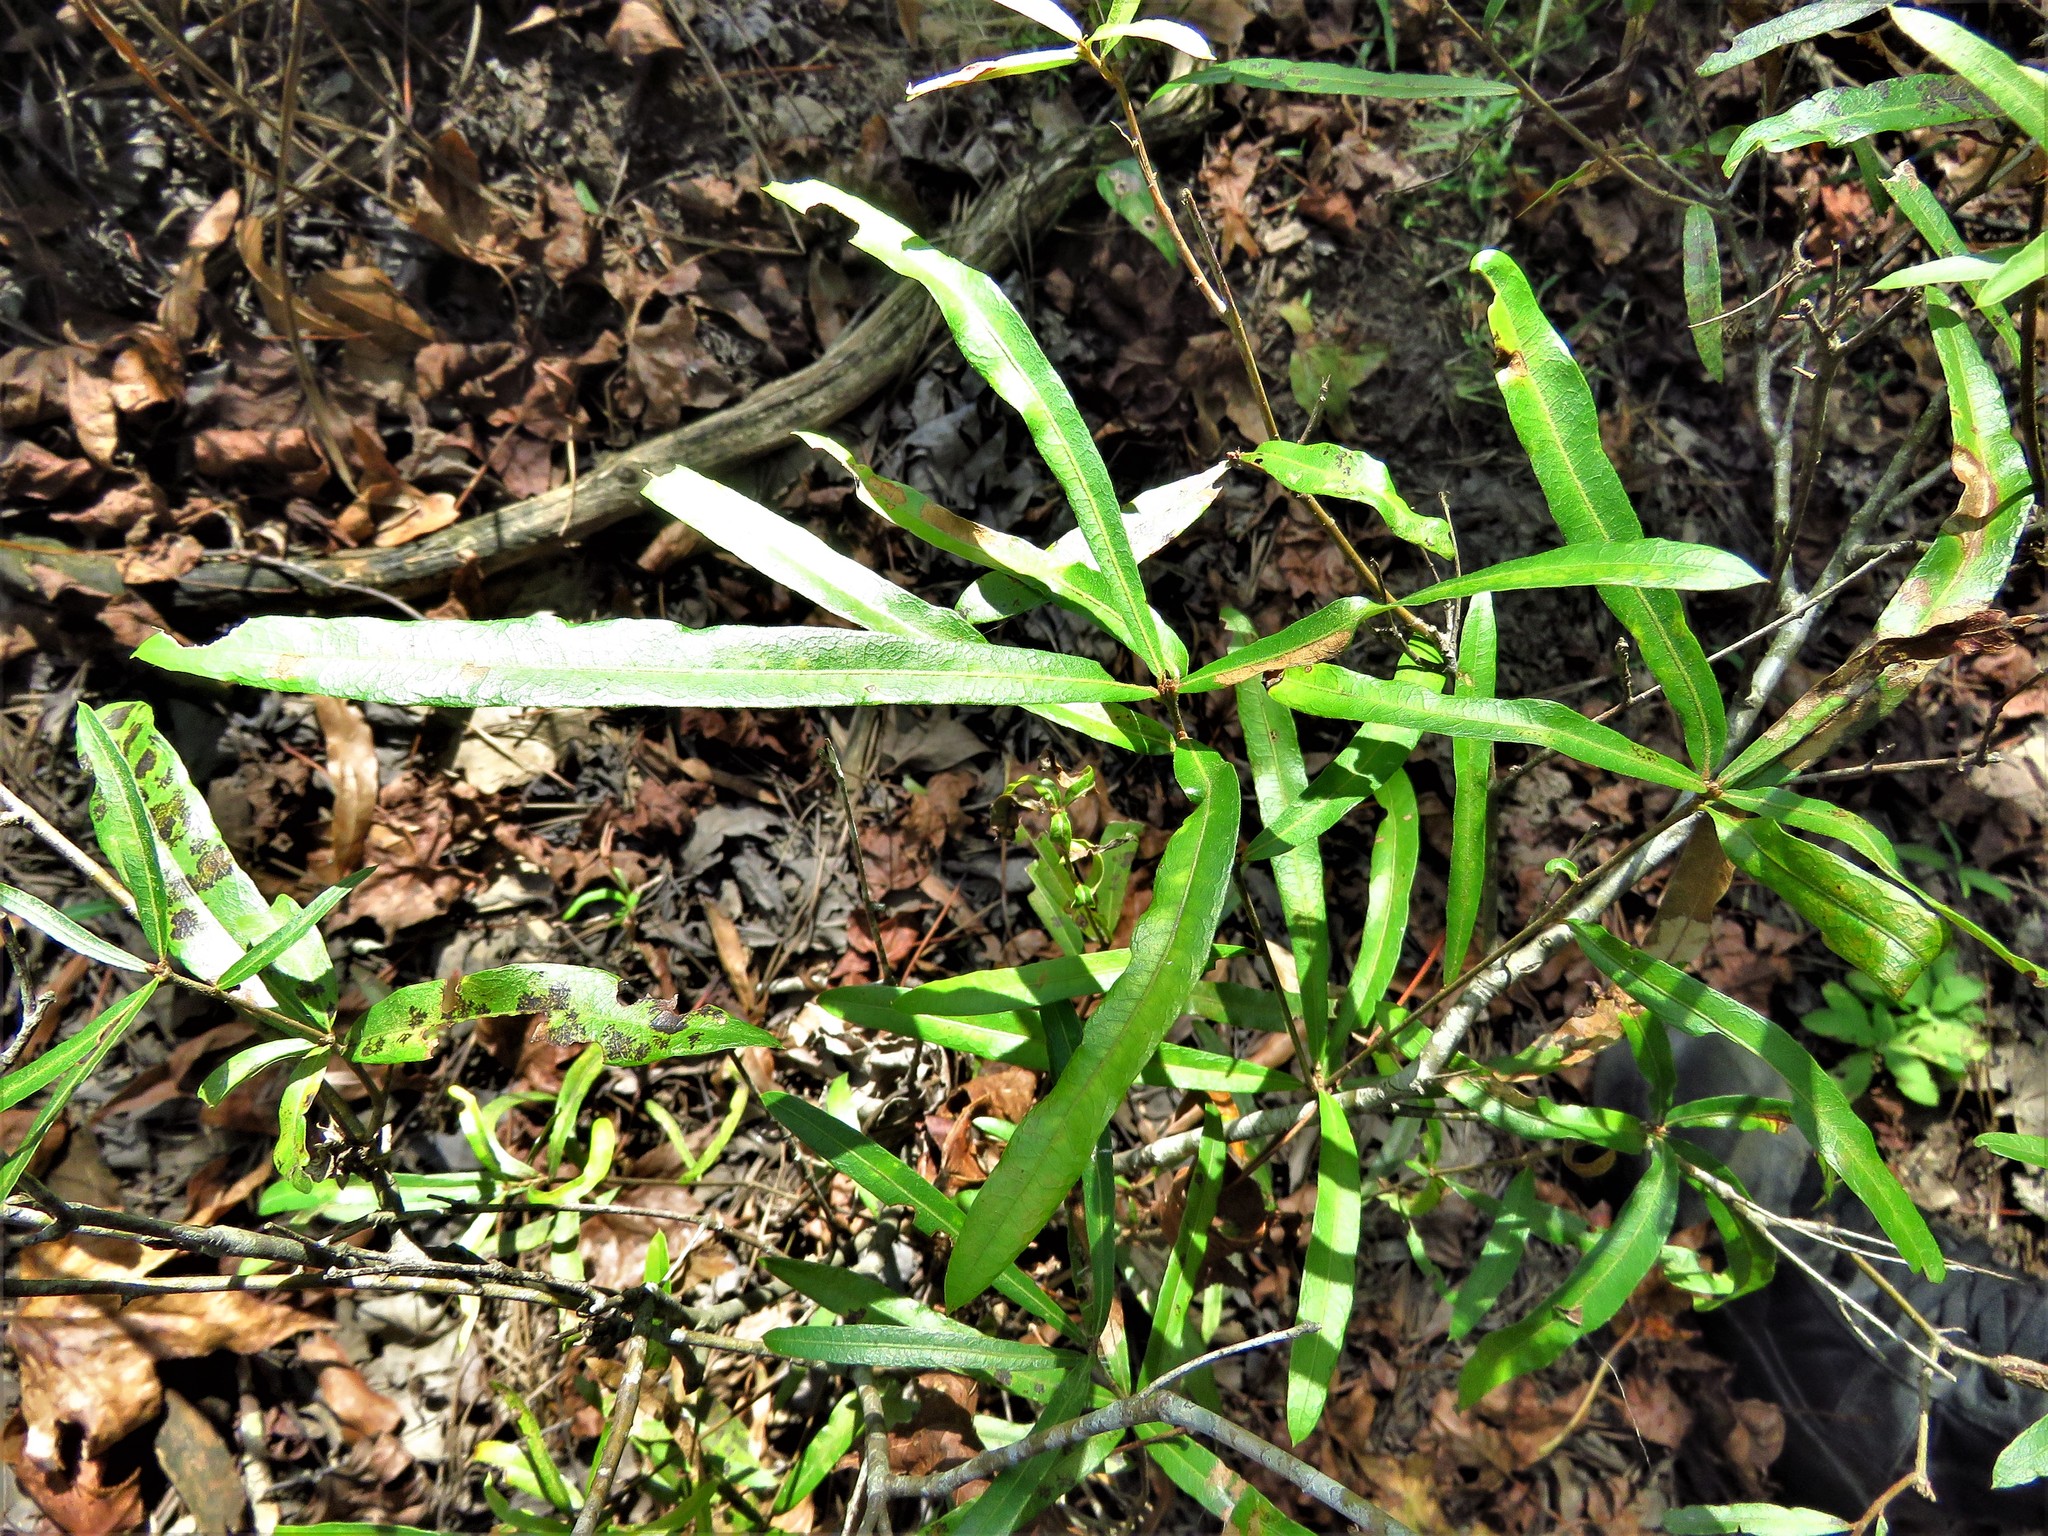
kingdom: Plantae
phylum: Tracheophyta
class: Magnoliopsida
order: Fagales
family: Fagaceae
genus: Quercus
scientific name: Quercus phellos
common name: Willow oak
